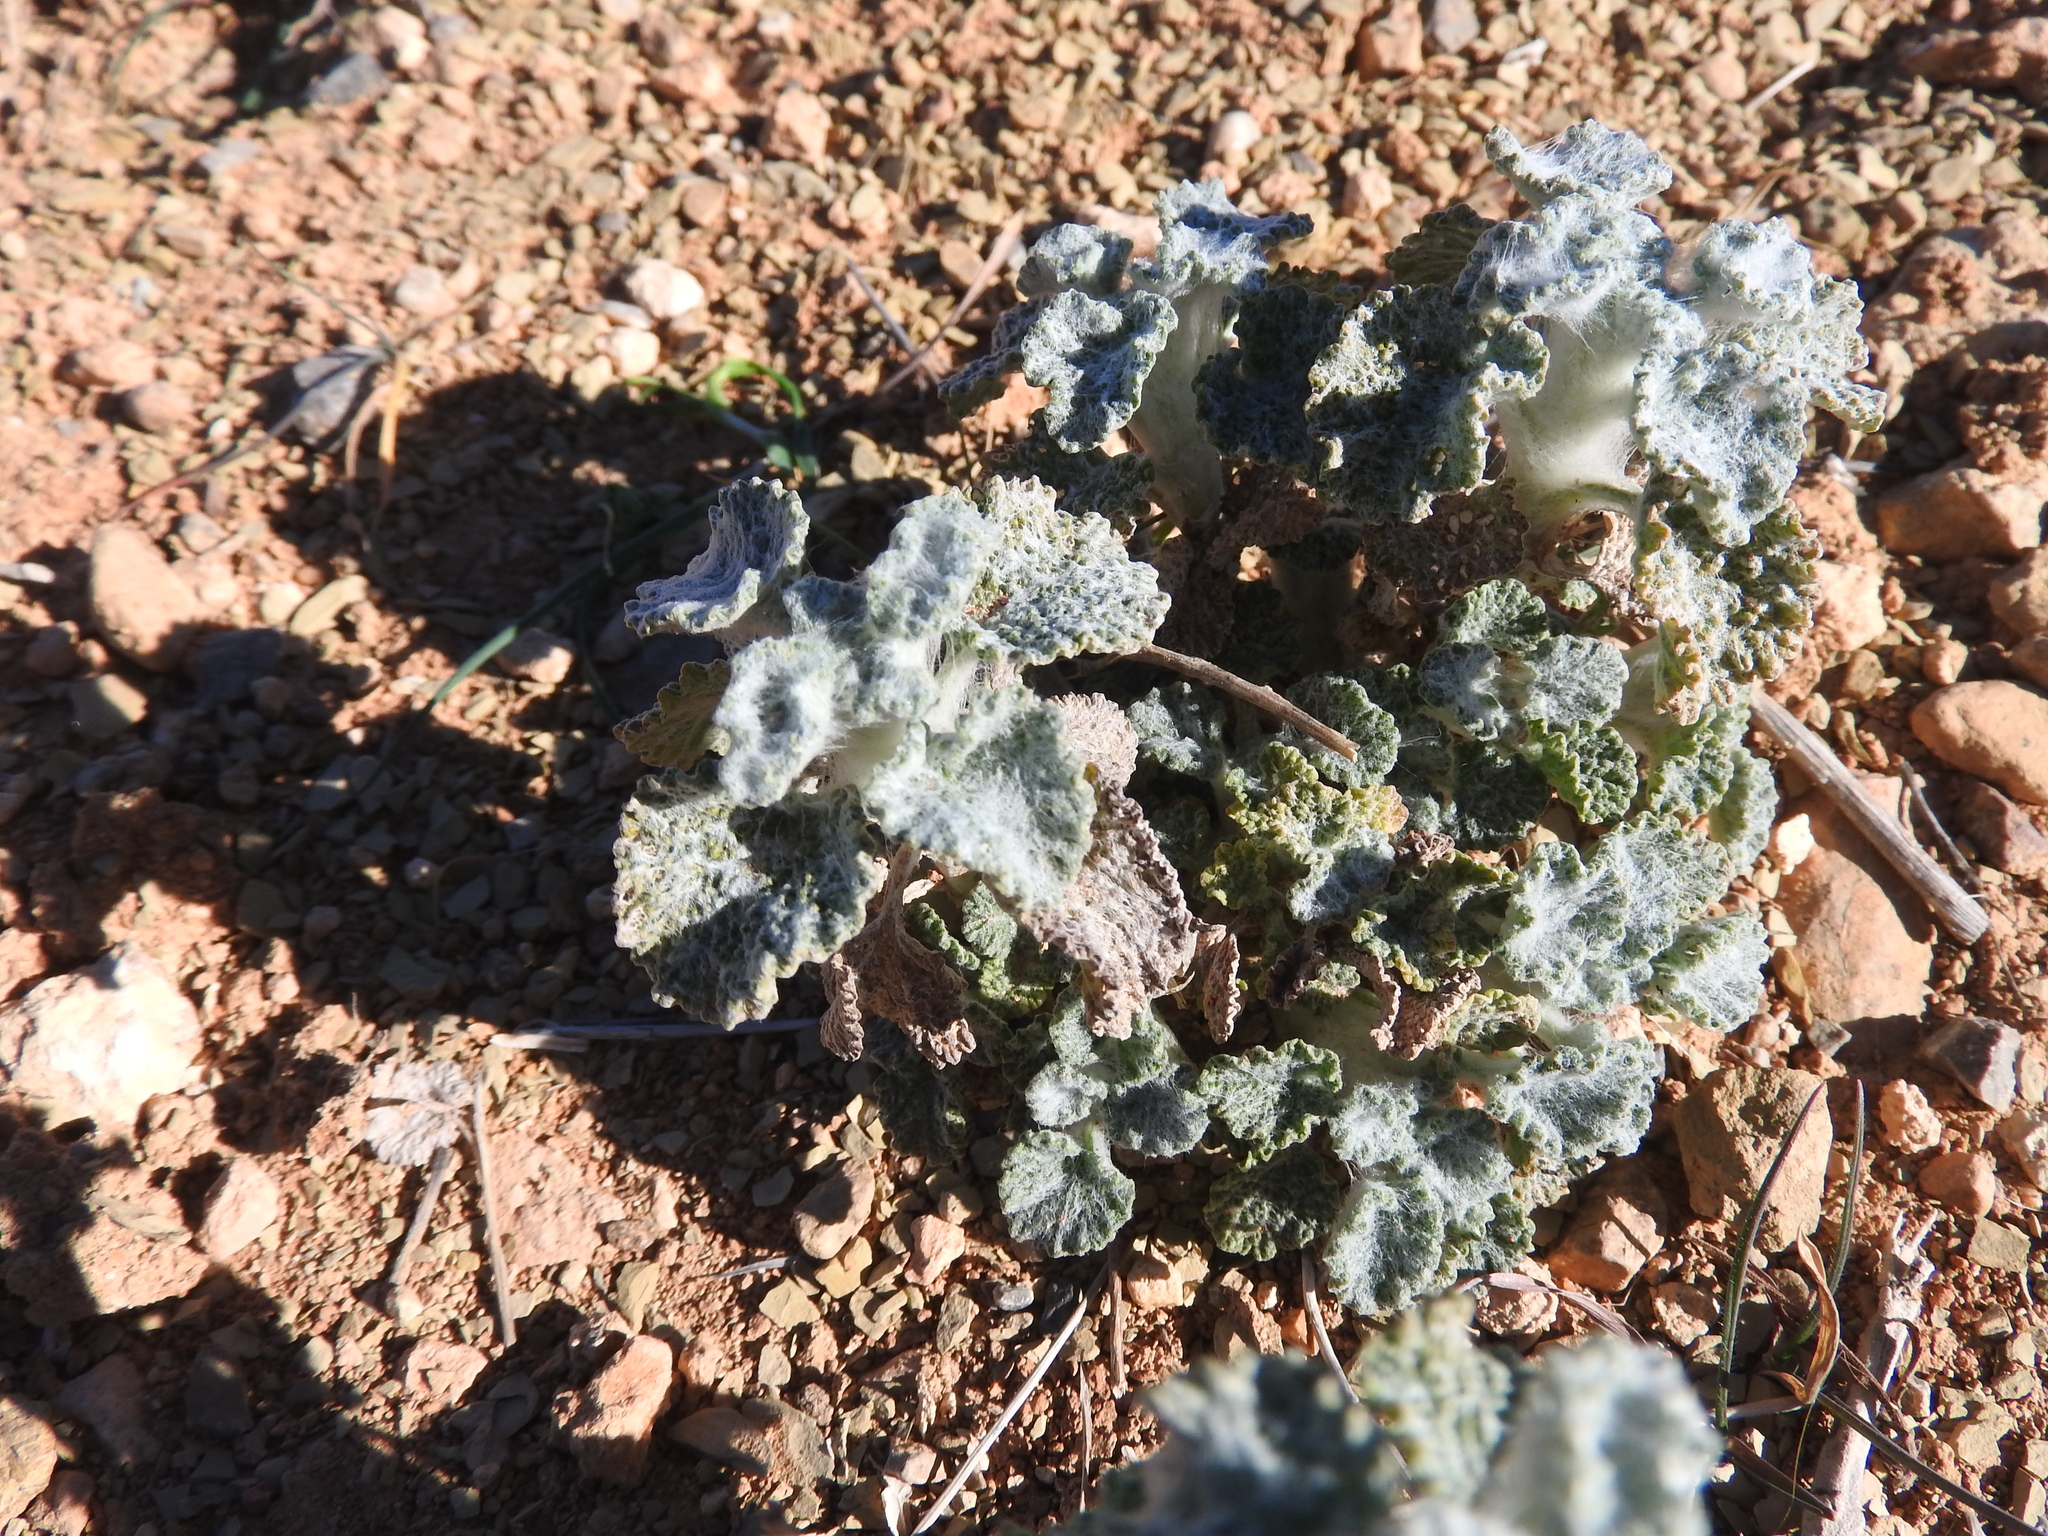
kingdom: Plantae
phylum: Tracheophyta
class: Magnoliopsida
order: Lamiales
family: Lamiaceae
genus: Marrubium
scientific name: Marrubium vulgare
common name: Horehound
